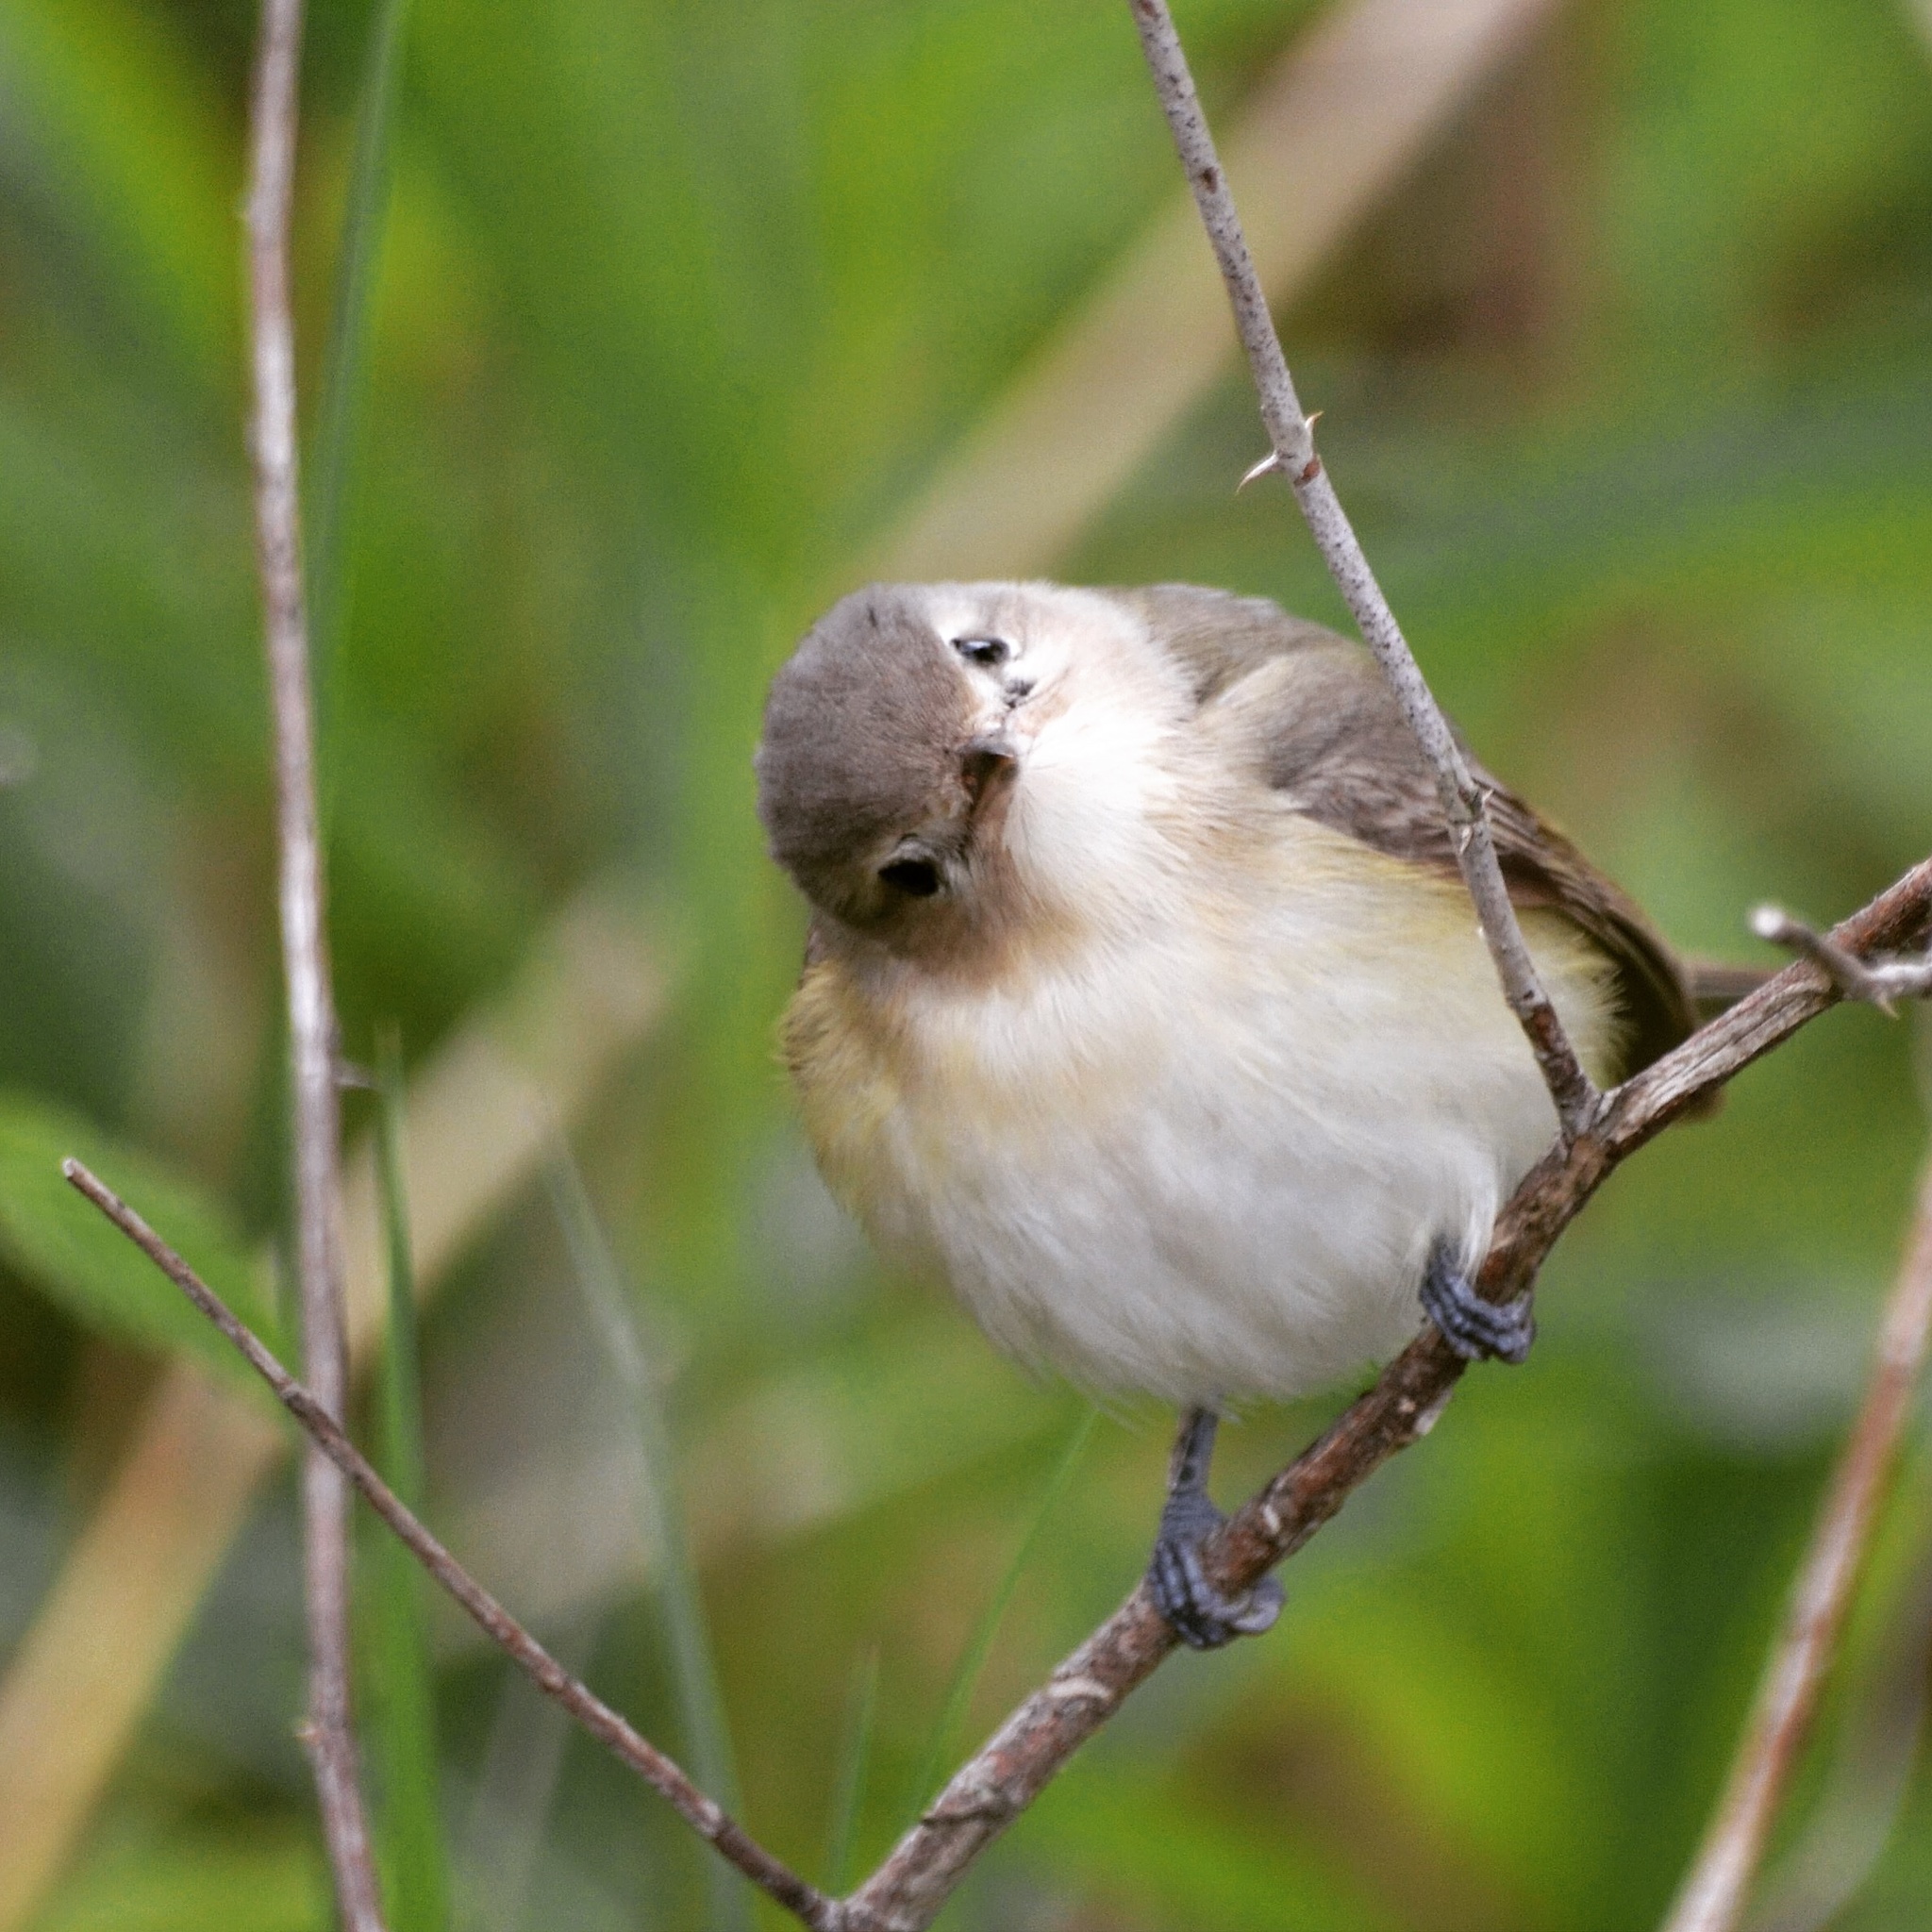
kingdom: Animalia
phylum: Chordata
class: Aves
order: Passeriformes
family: Vireonidae
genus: Vireo
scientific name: Vireo gilvus
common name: Warbling vireo
